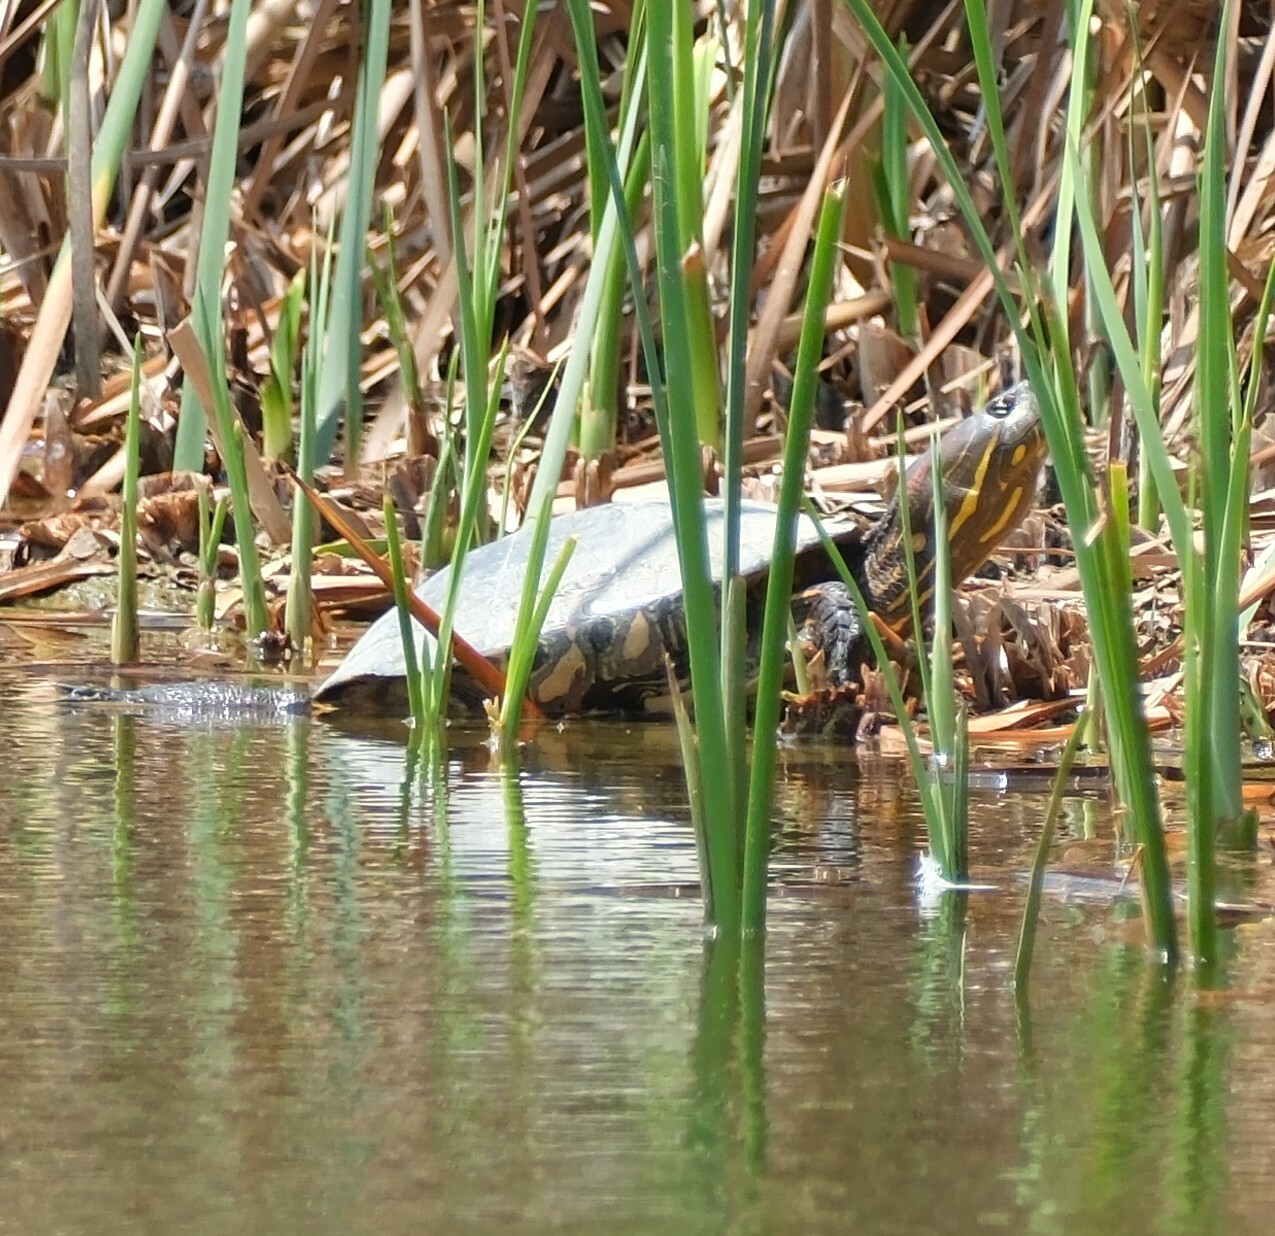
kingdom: Animalia
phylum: Chordata
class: Testudines
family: Emydidae
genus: Trachemys
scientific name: Trachemys callirostris
